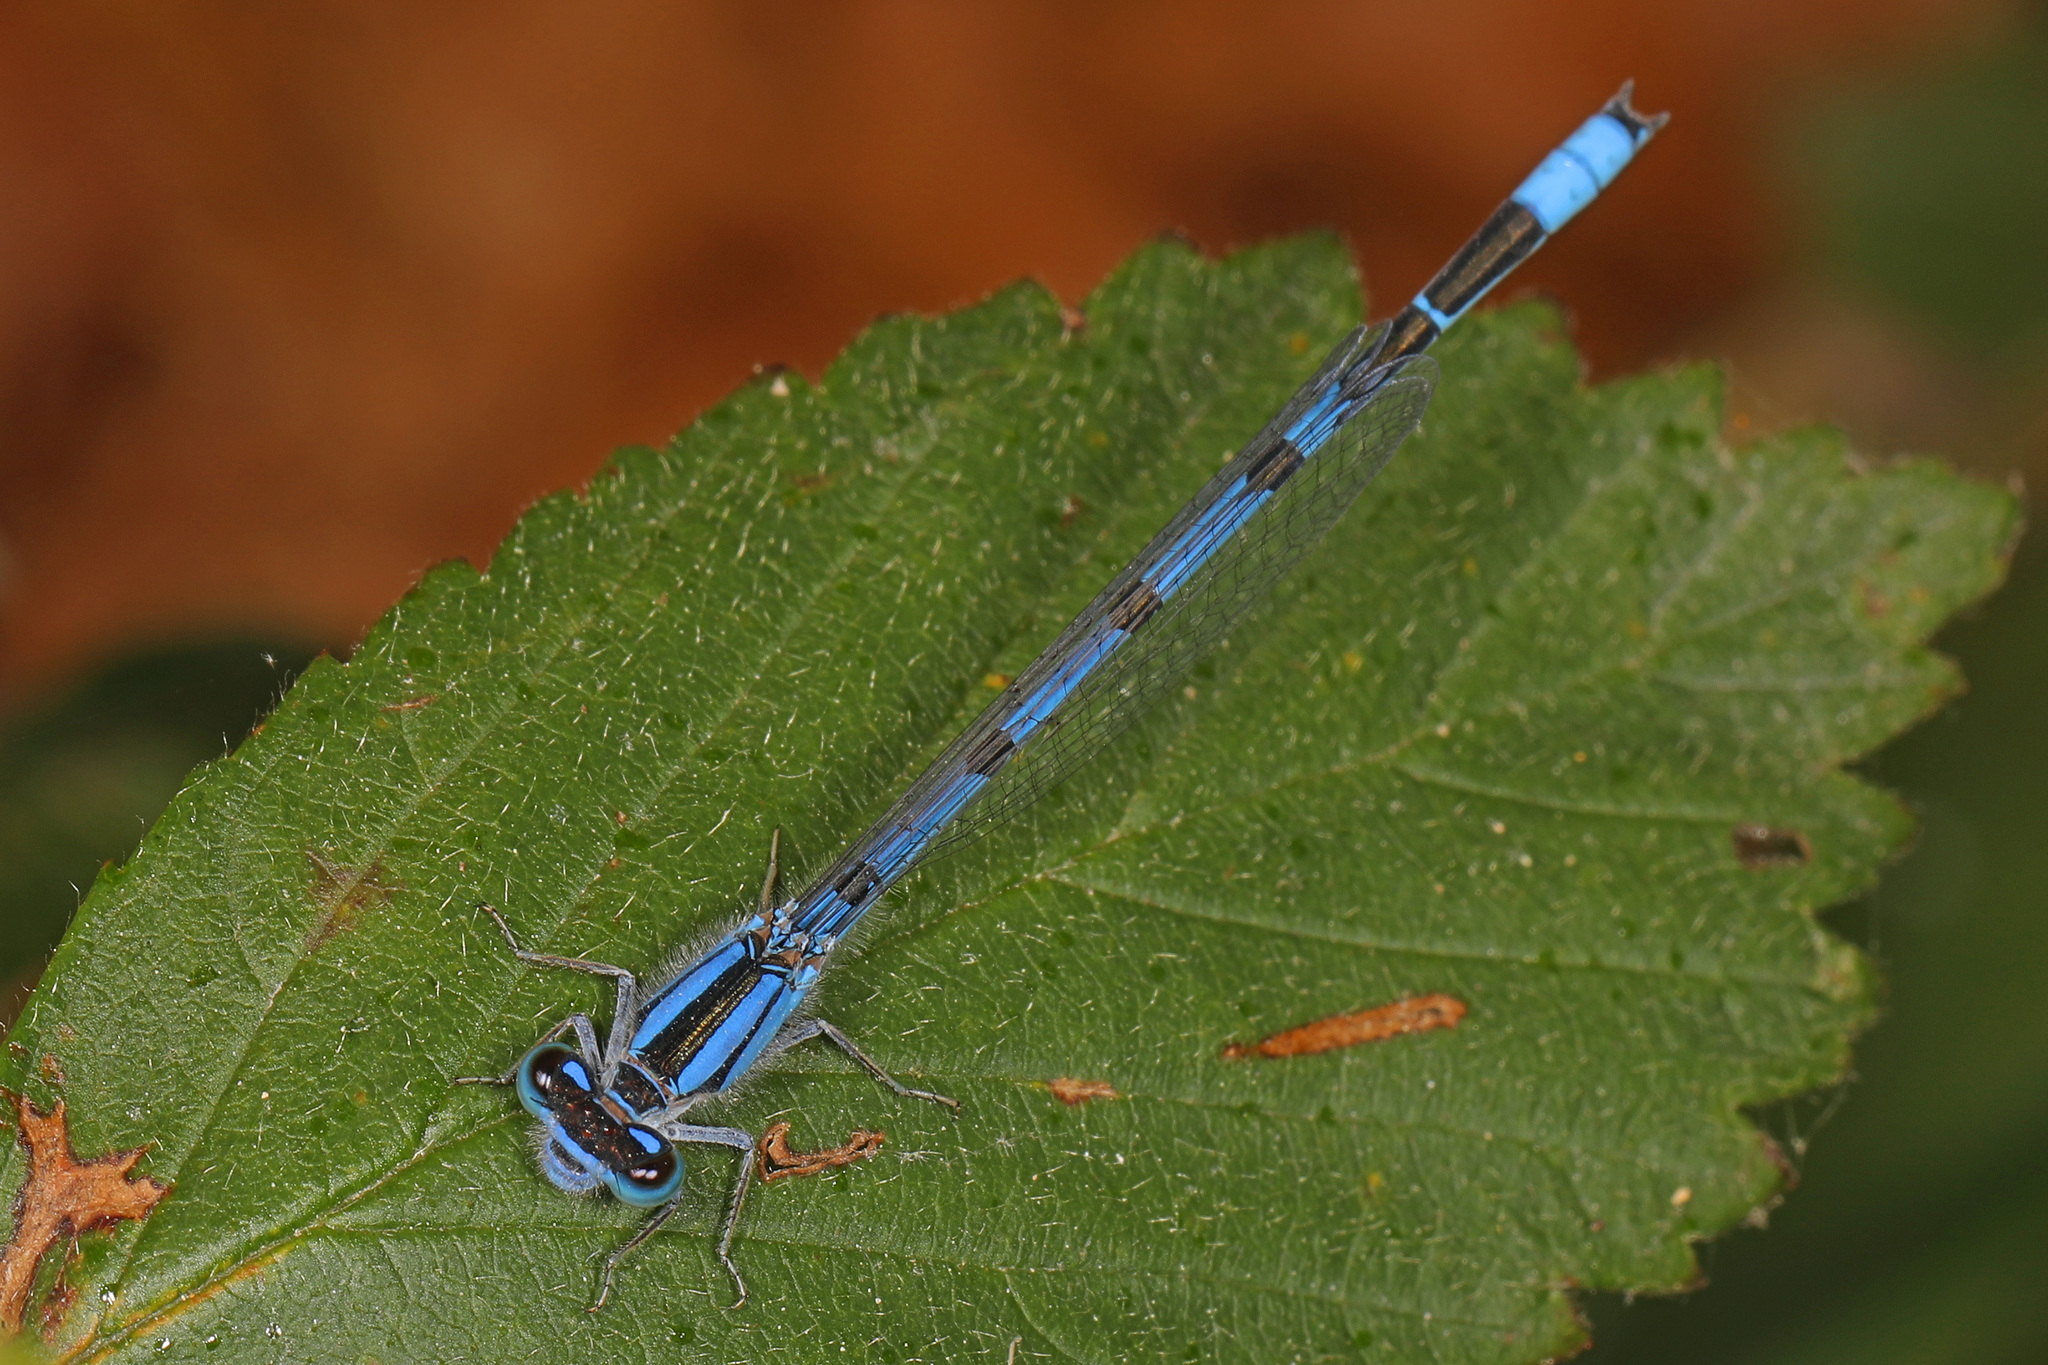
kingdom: Animalia
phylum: Arthropoda
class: Insecta
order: Odonata
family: Coenagrionidae
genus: Enallagma
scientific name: Enallagma civile
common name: Damselfly
